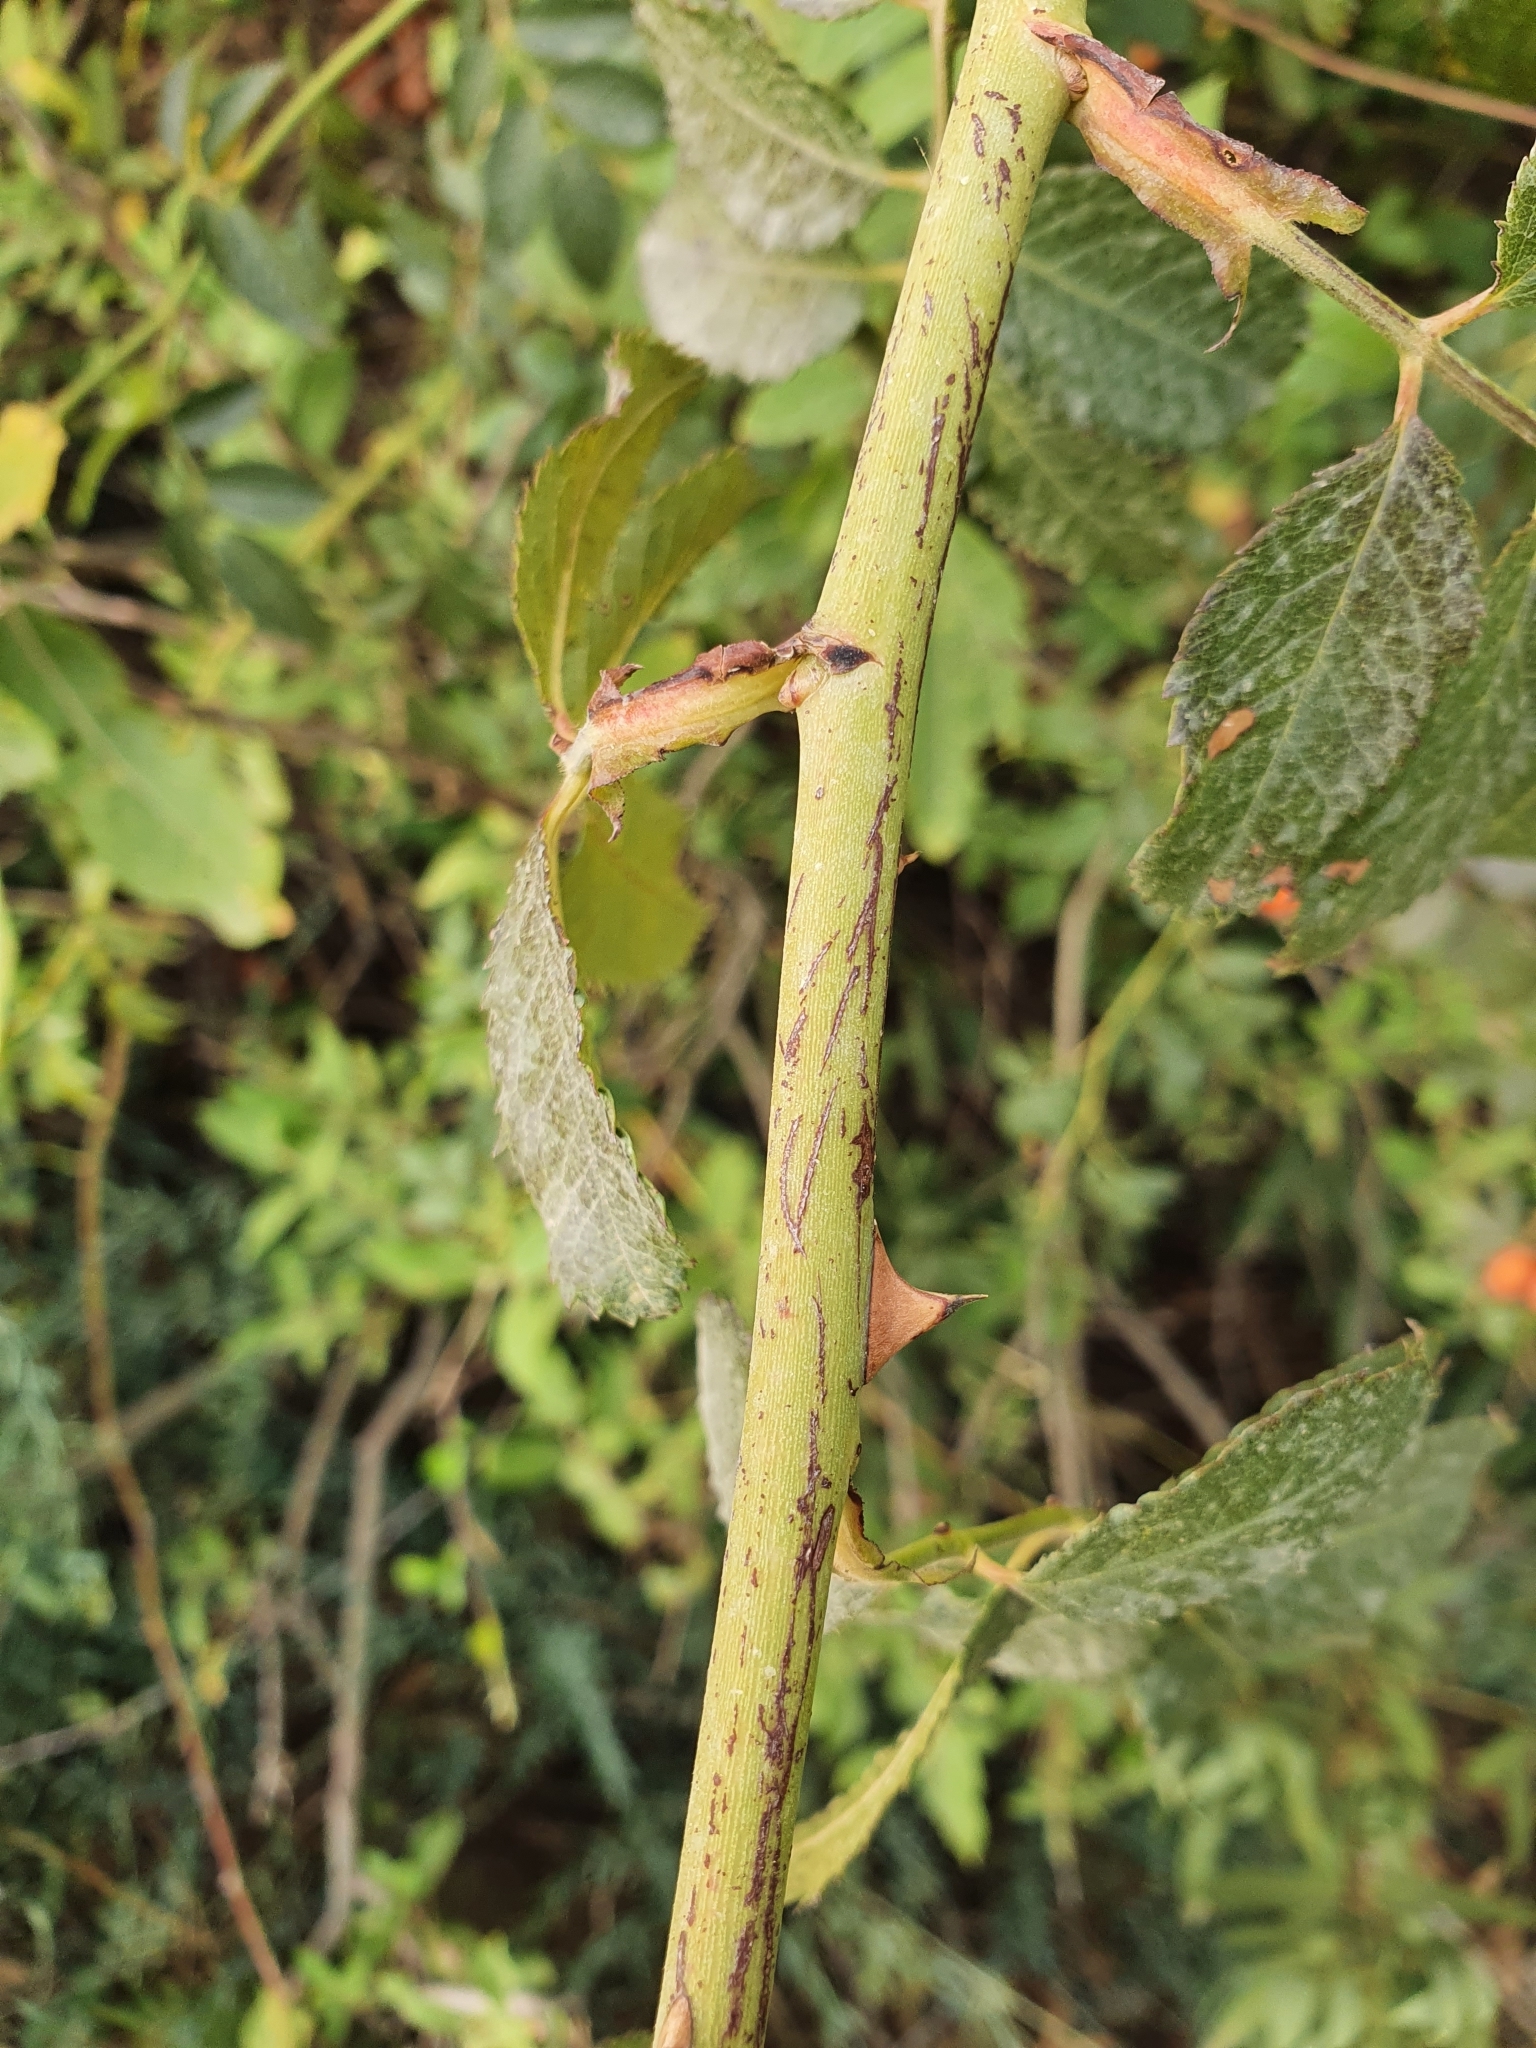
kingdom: Plantae
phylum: Tracheophyta
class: Magnoliopsida
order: Rosales
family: Rosaceae
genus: Rosa
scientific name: Rosa canina
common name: Dog rose
